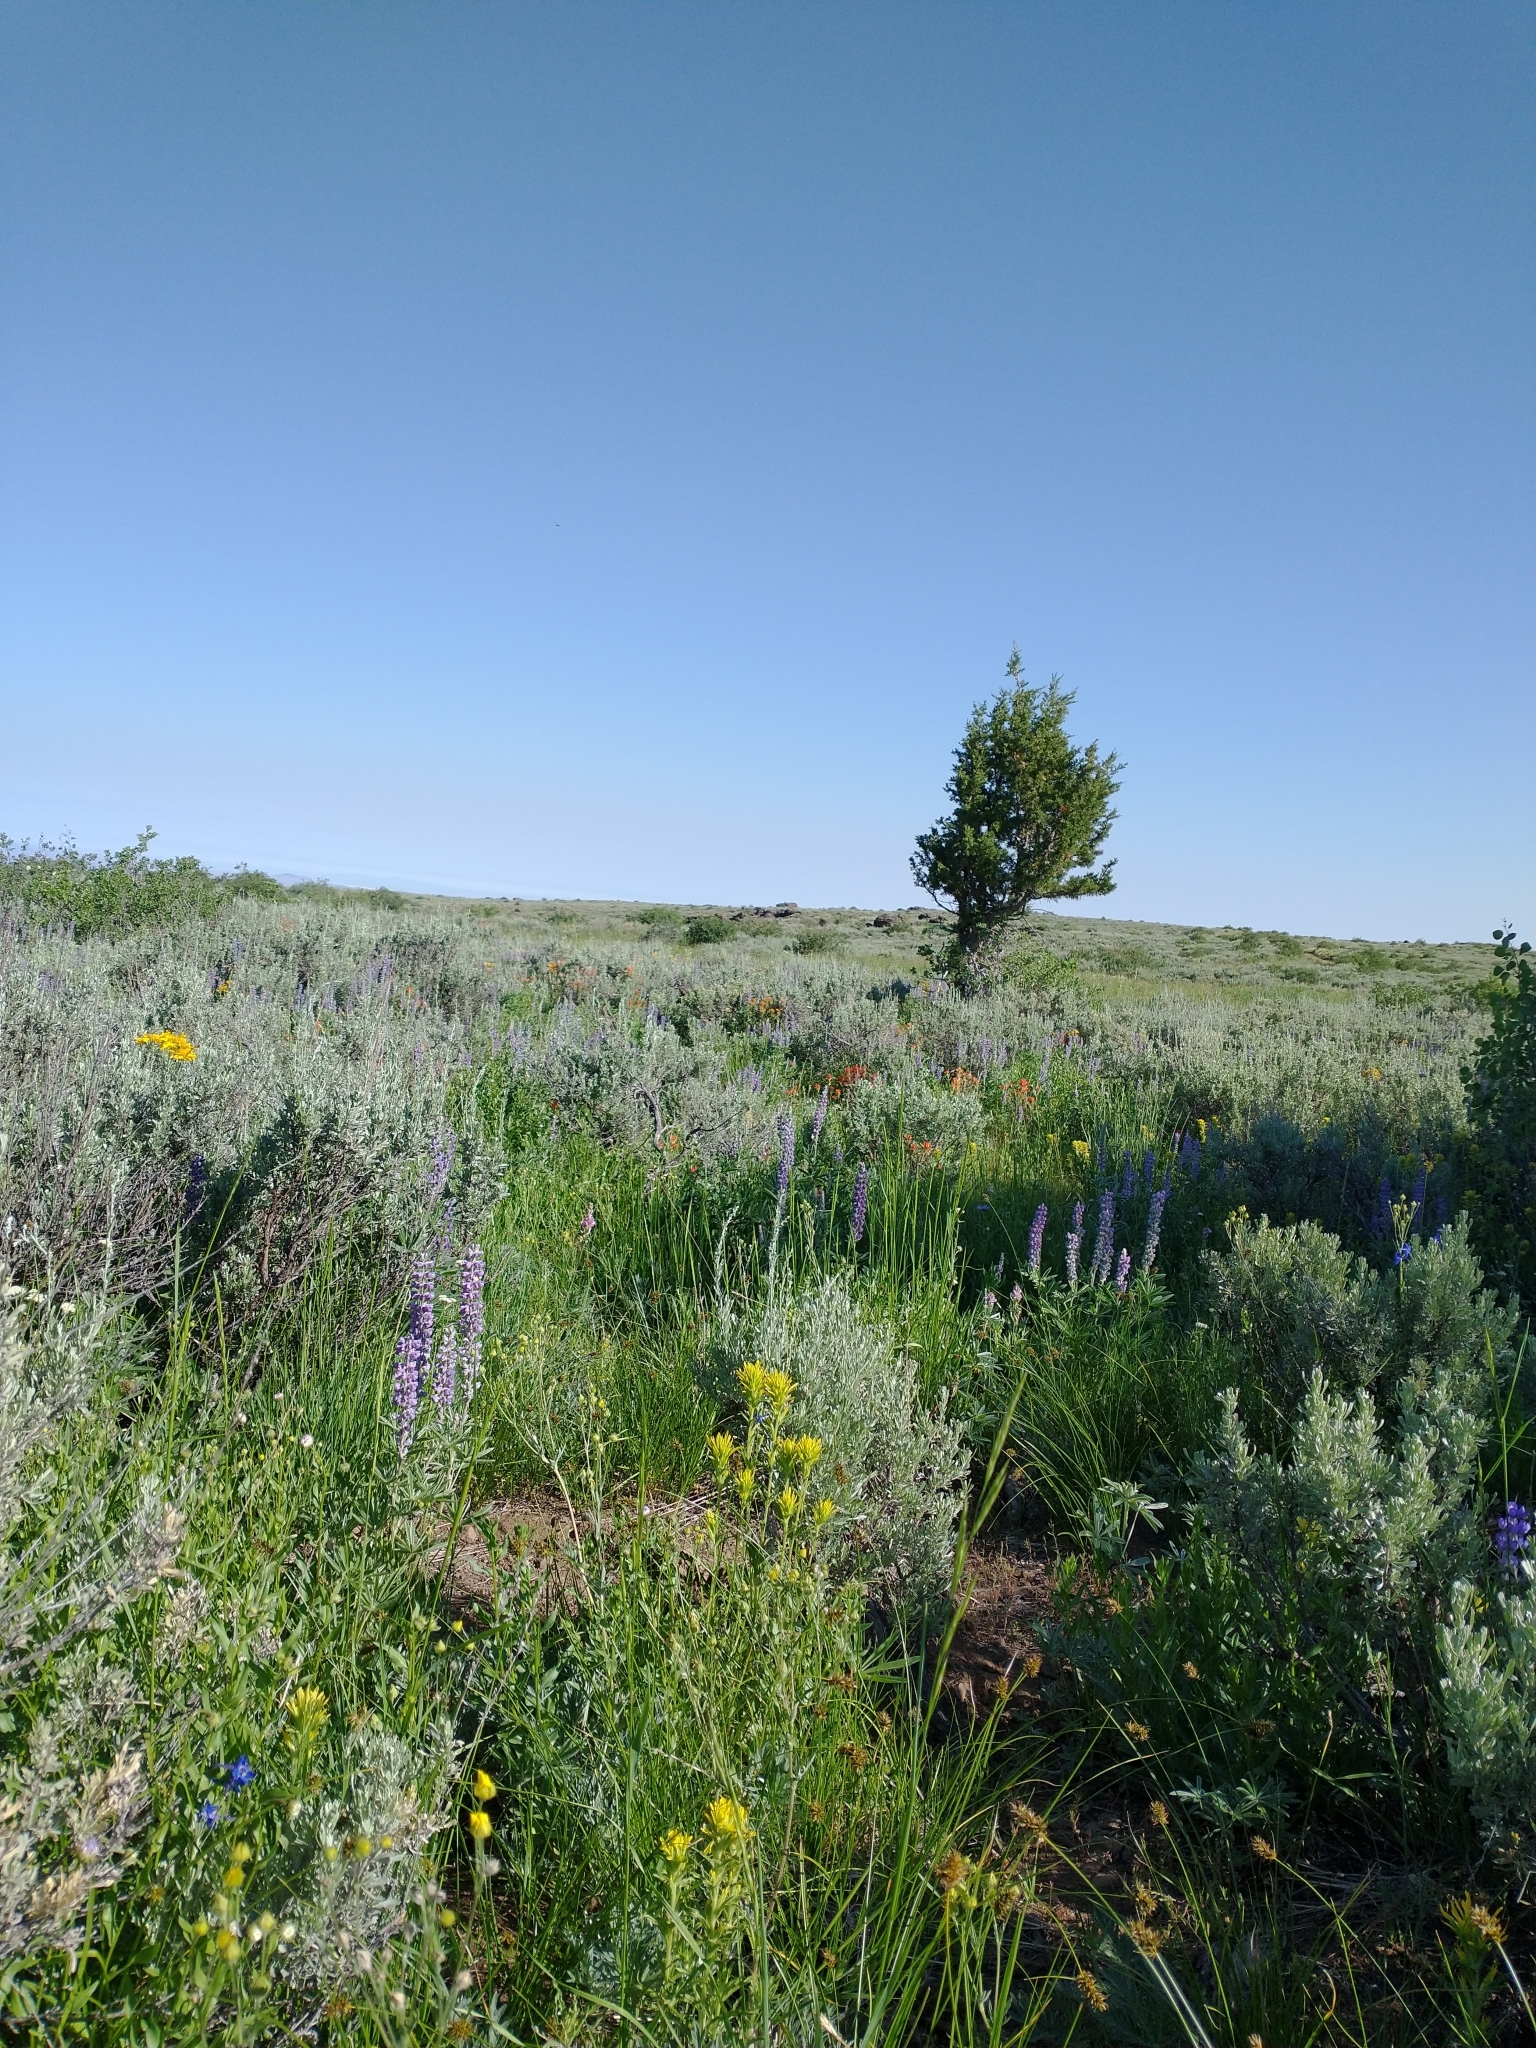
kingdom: Plantae
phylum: Tracheophyta
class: Pinopsida
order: Pinales
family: Cupressaceae
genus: Juniperus
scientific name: Juniperus occidentalis
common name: Western juniper
